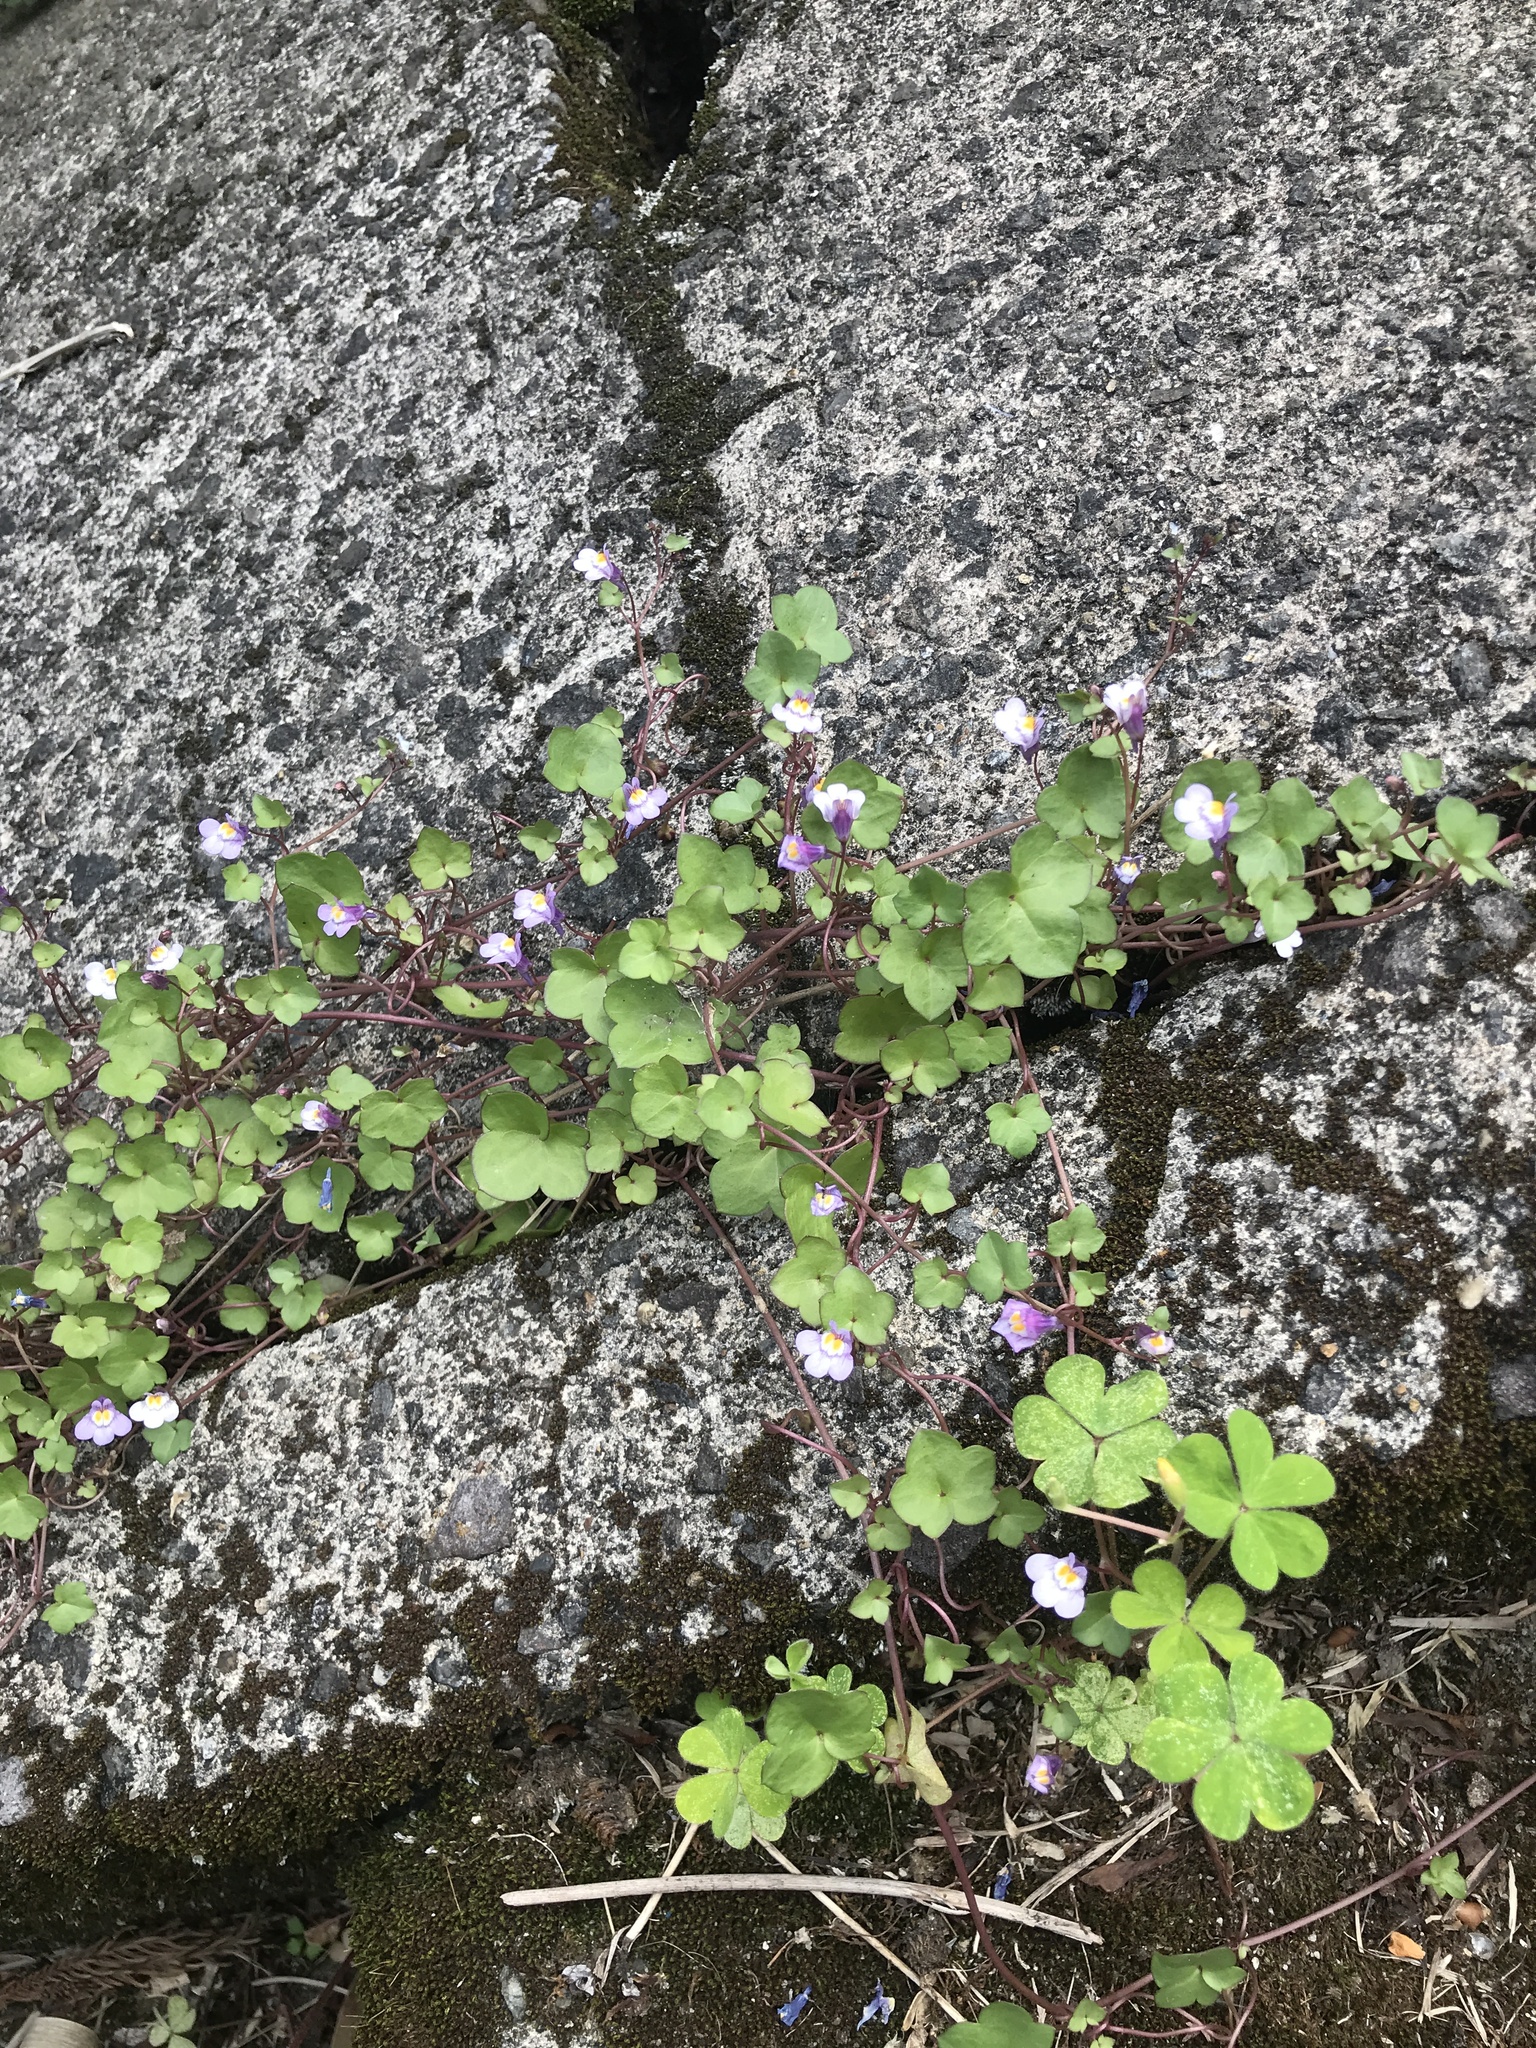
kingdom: Plantae
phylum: Tracheophyta
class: Magnoliopsida
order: Lamiales
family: Plantaginaceae
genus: Cymbalaria
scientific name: Cymbalaria muralis
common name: Ivy-leaved toadflax
